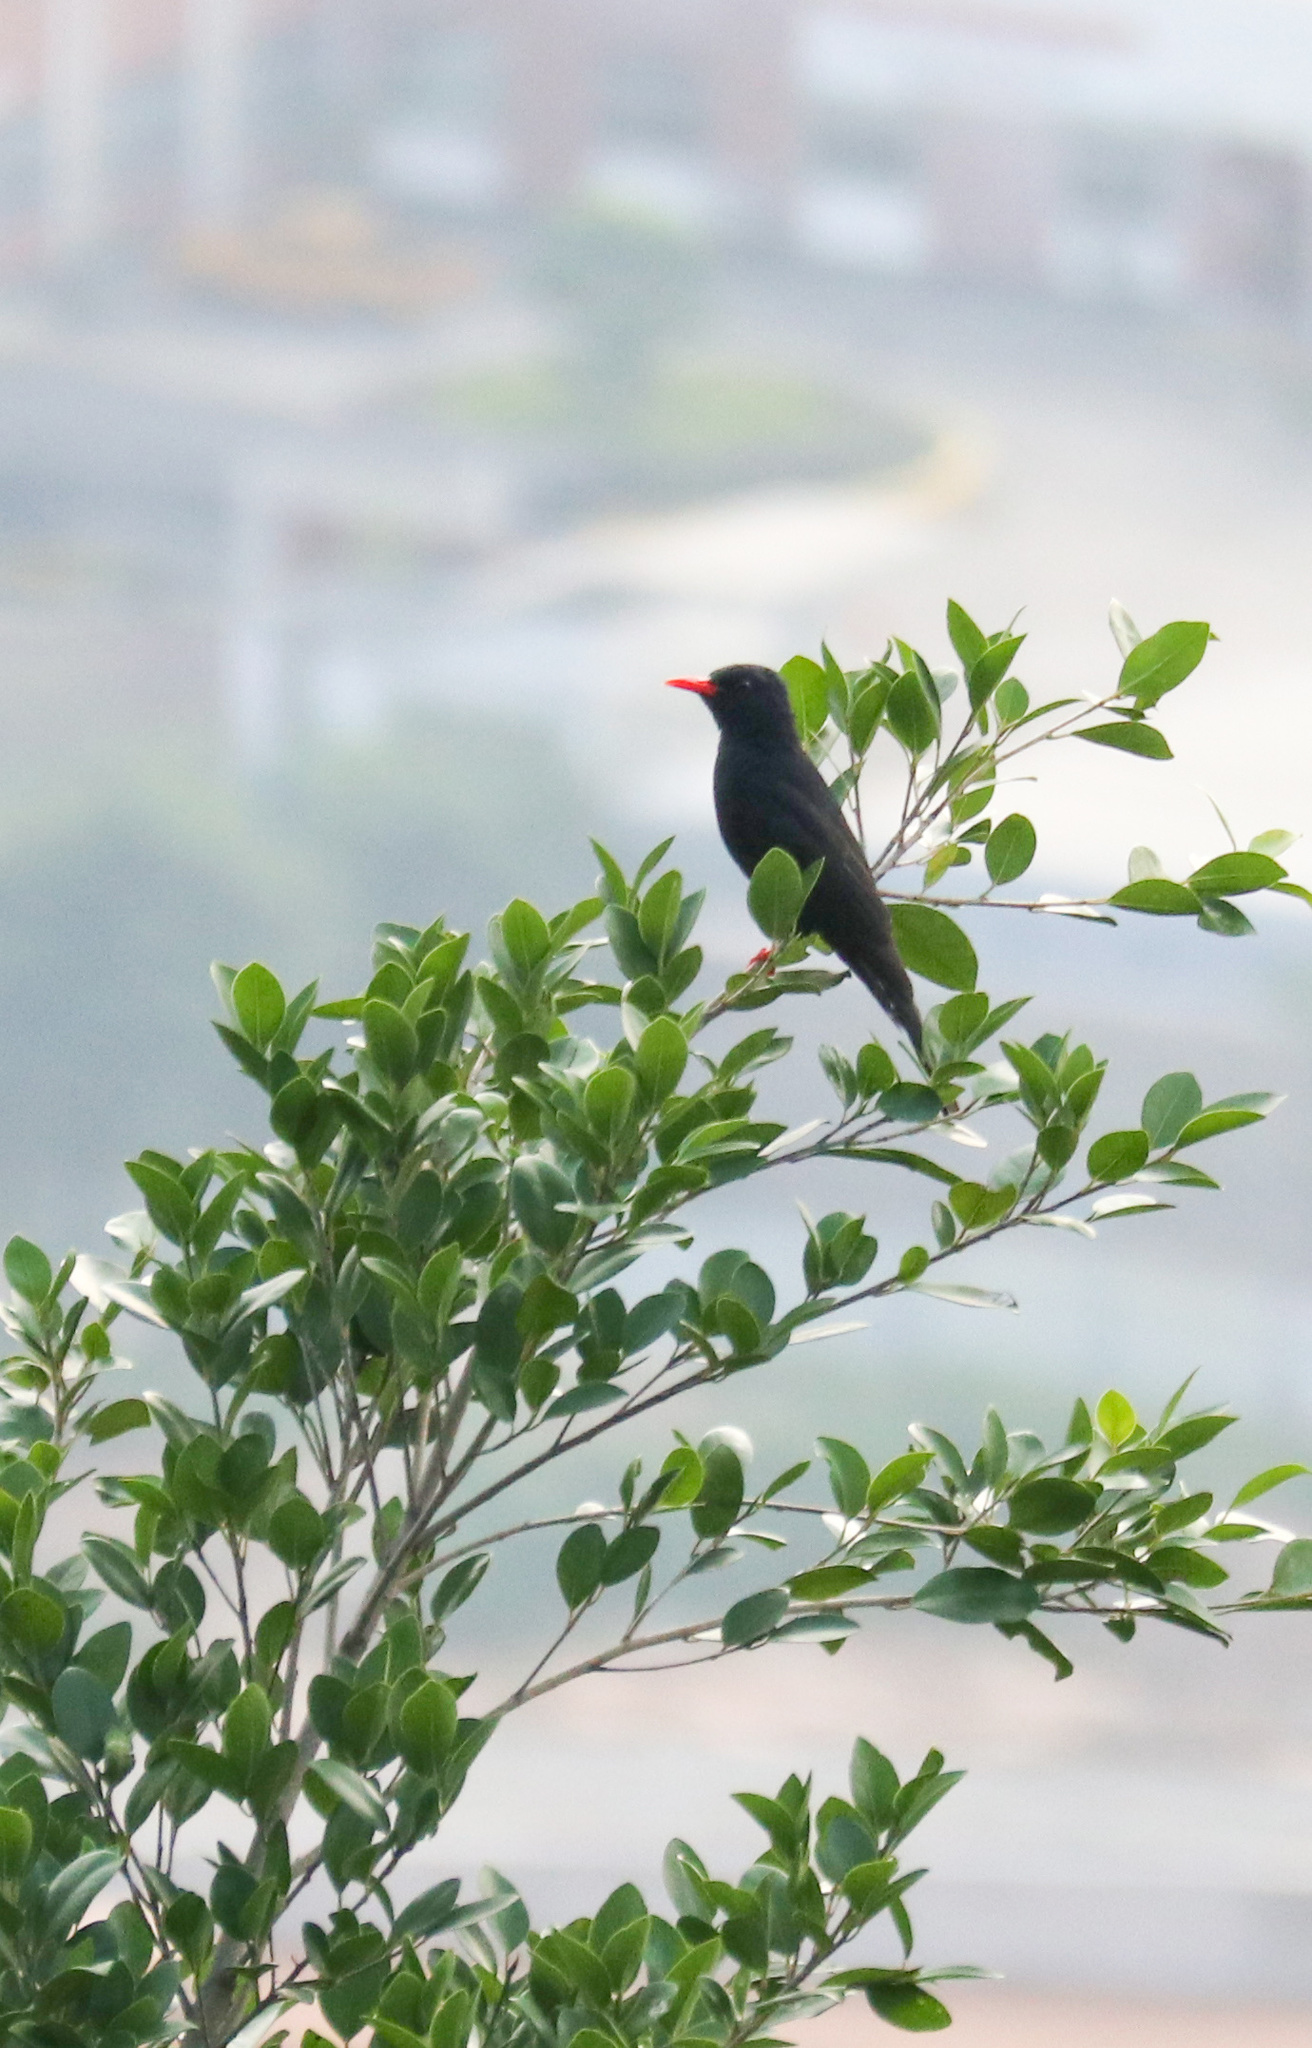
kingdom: Animalia
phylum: Chordata
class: Aves
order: Passeriformes
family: Pycnonotidae
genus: Hypsipetes
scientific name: Hypsipetes leucocephalus
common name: Black bulbul
